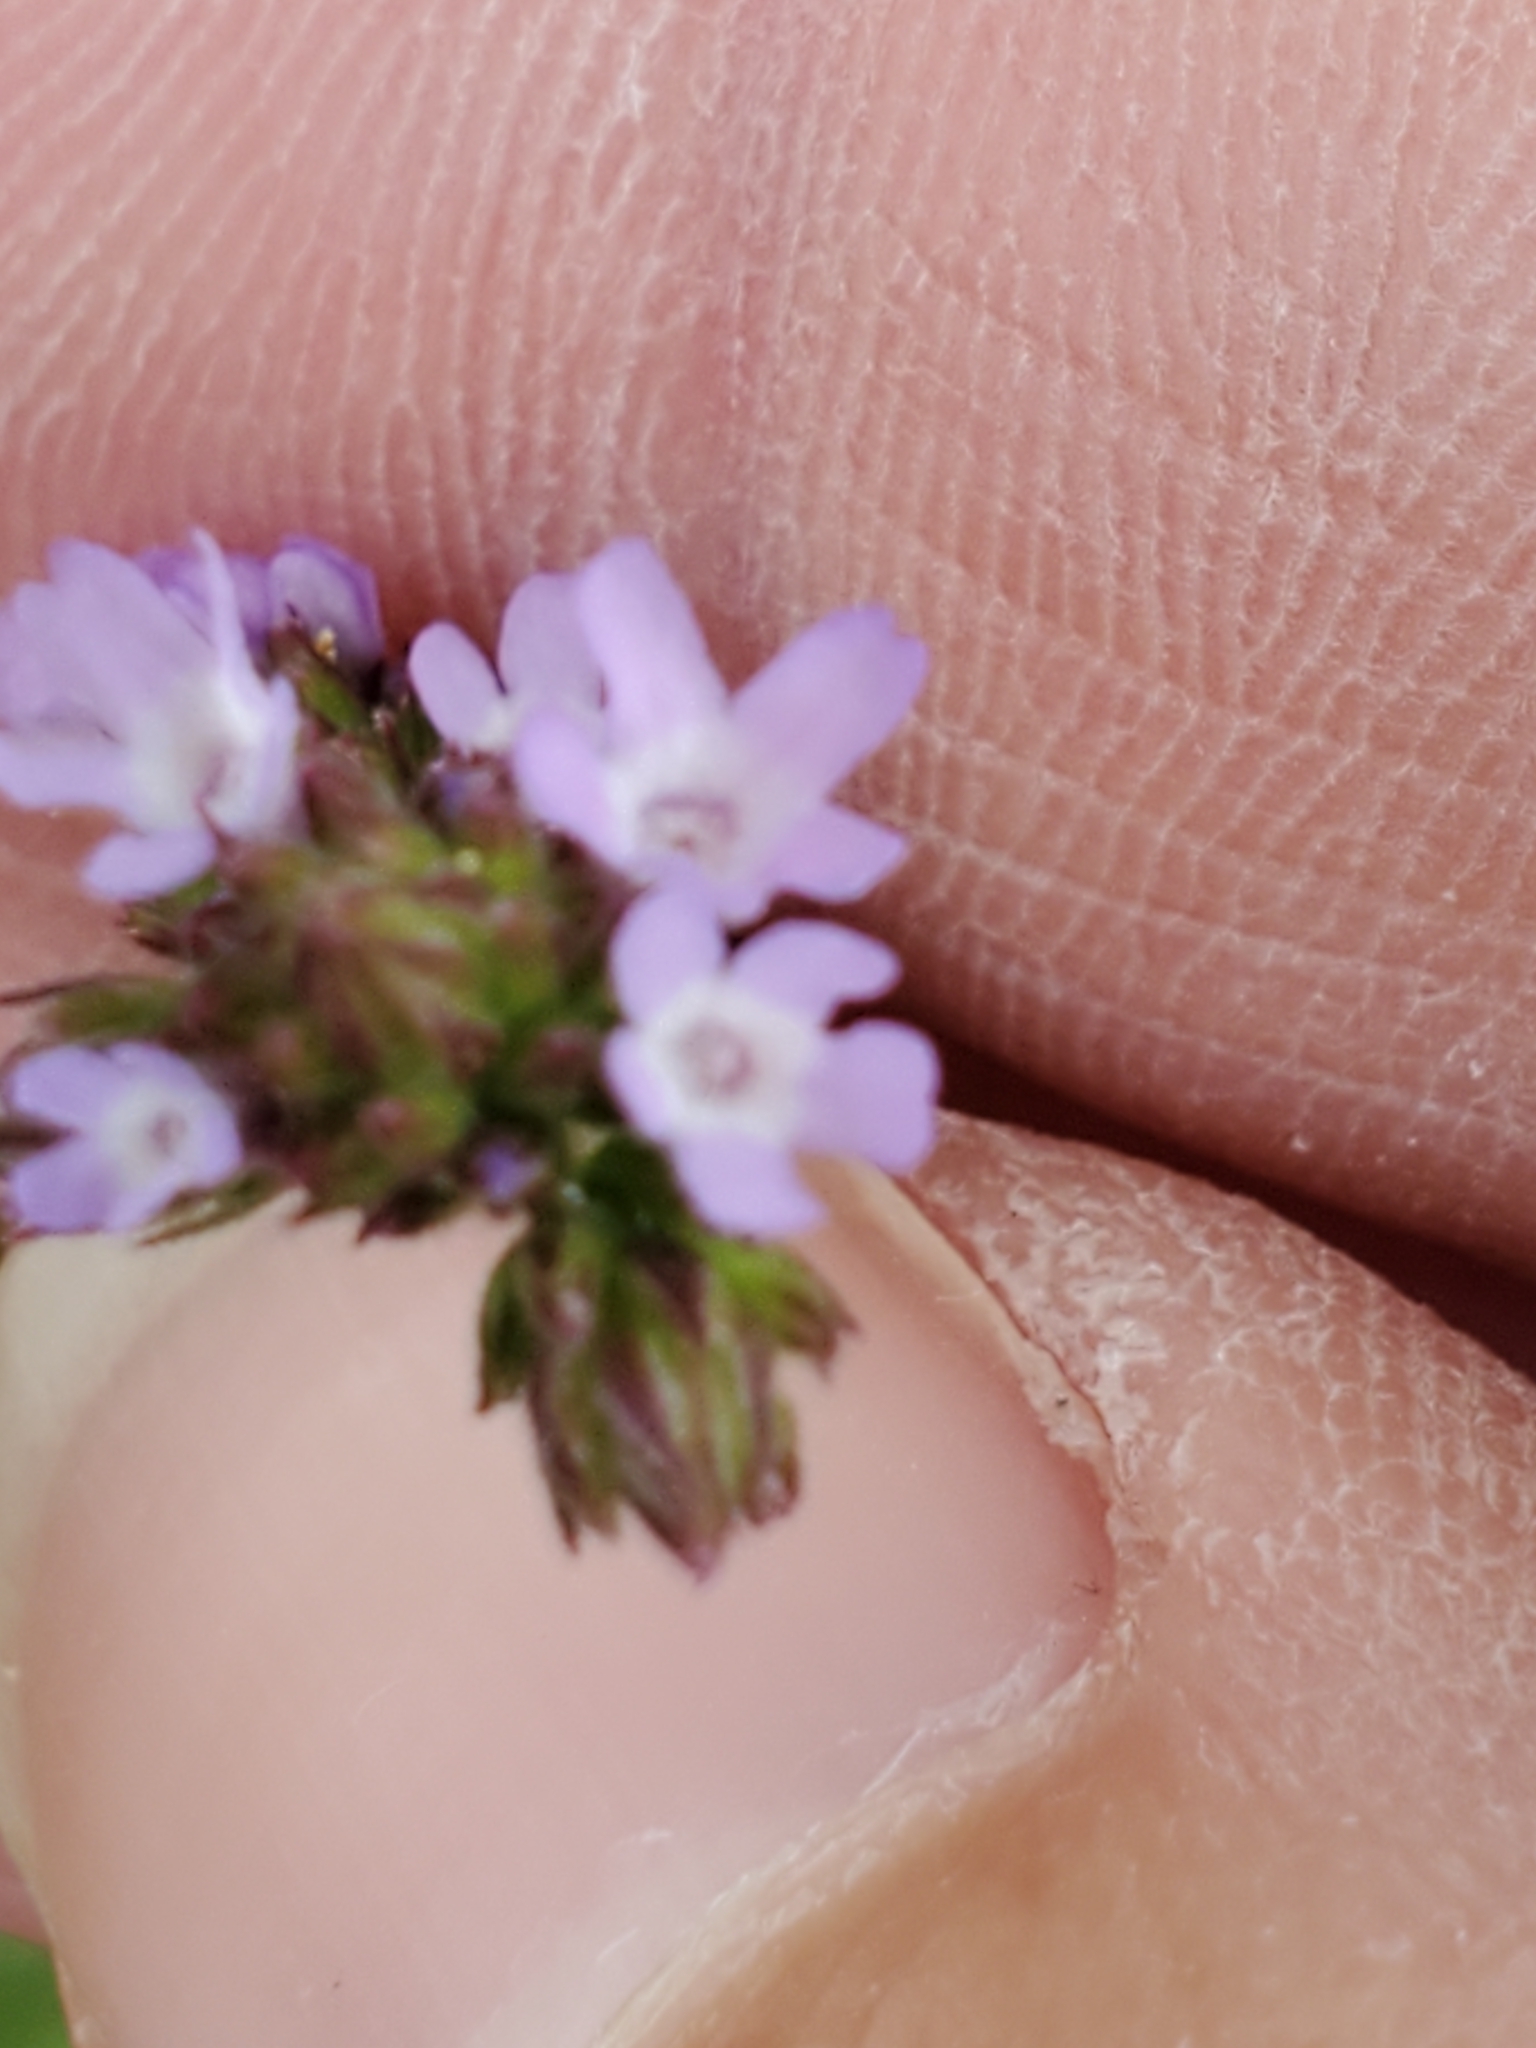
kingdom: Plantae
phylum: Tracheophyta
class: Magnoliopsida
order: Lamiales
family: Verbenaceae
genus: Verbena
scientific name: Verbena brasiliensis
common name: Brazilian vervain
